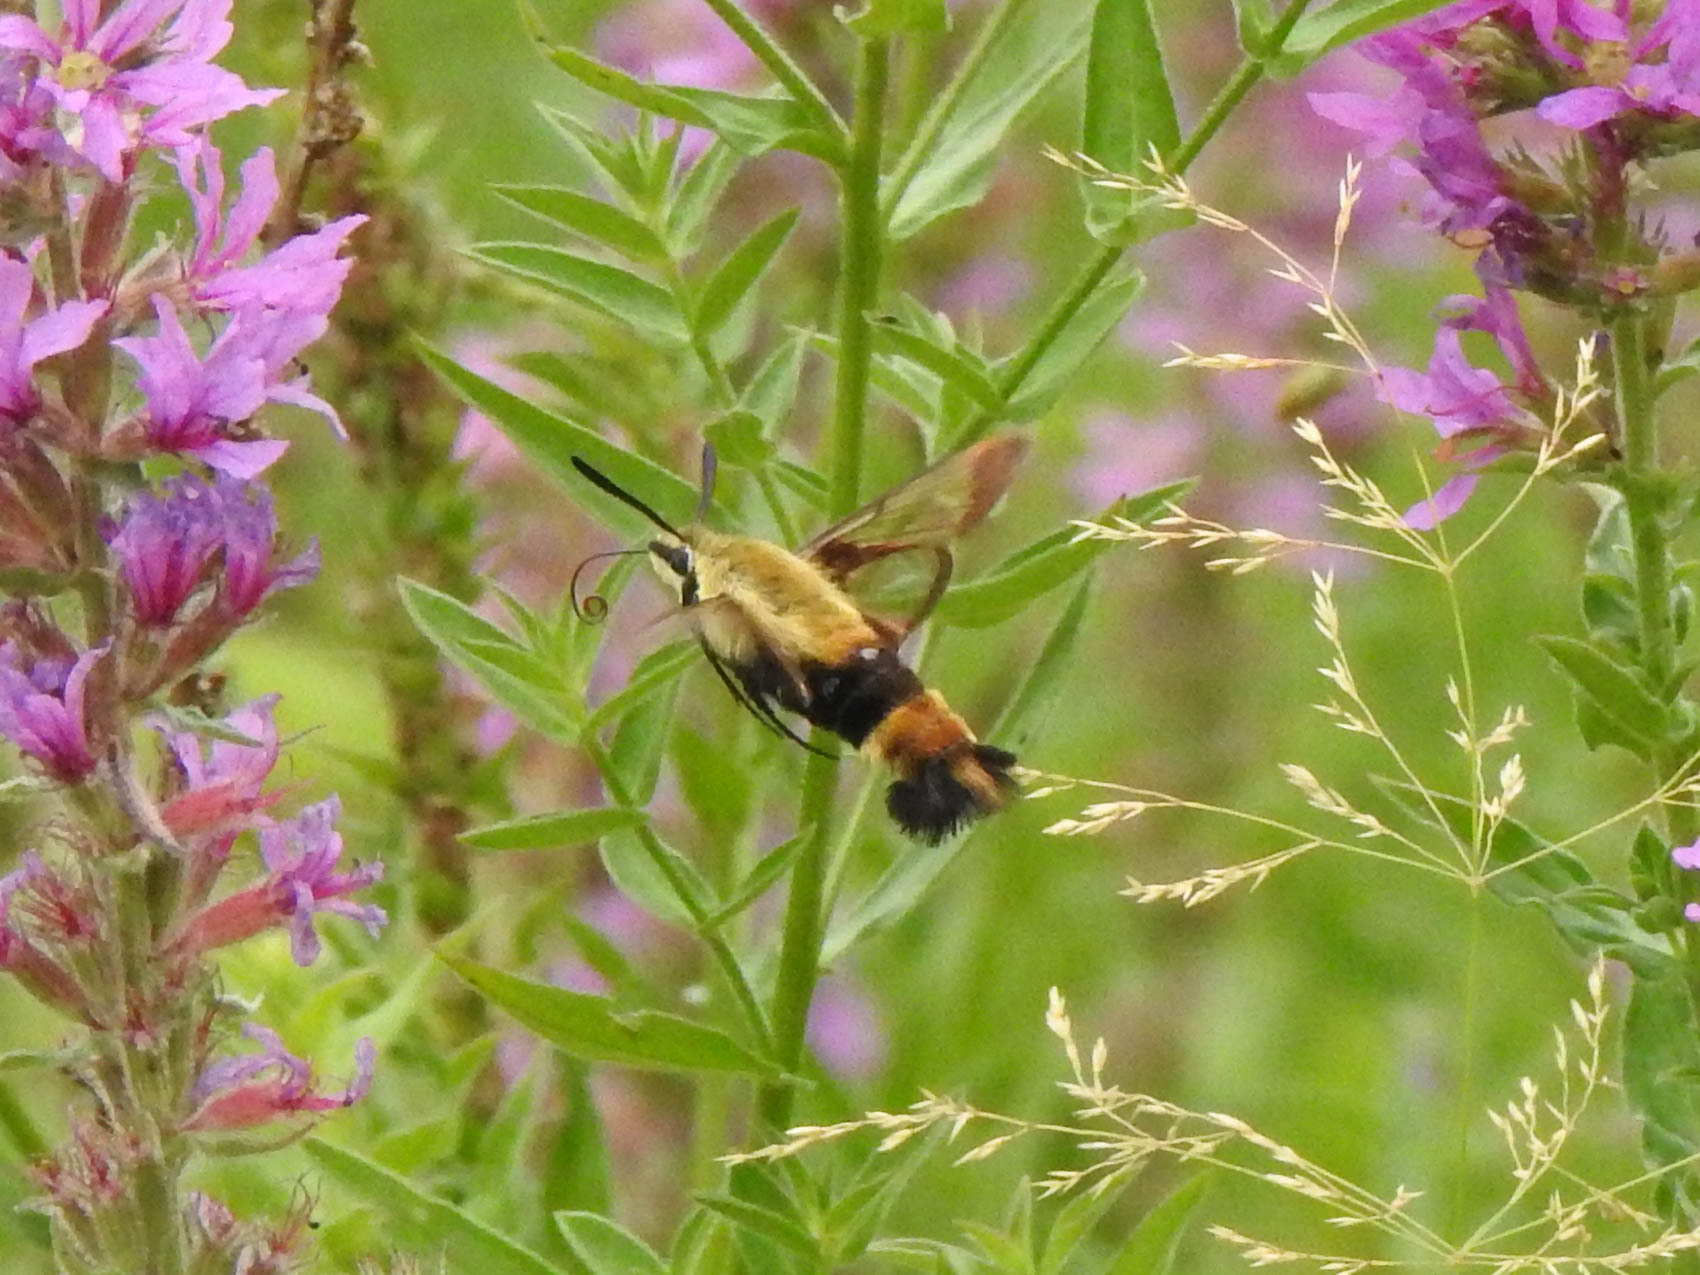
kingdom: Animalia
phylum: Arthropoda
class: Insecta
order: Lepidoptera
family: Sphingidae
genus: Hemaris
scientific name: Hemaris diffinis
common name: Bumblebee moth
